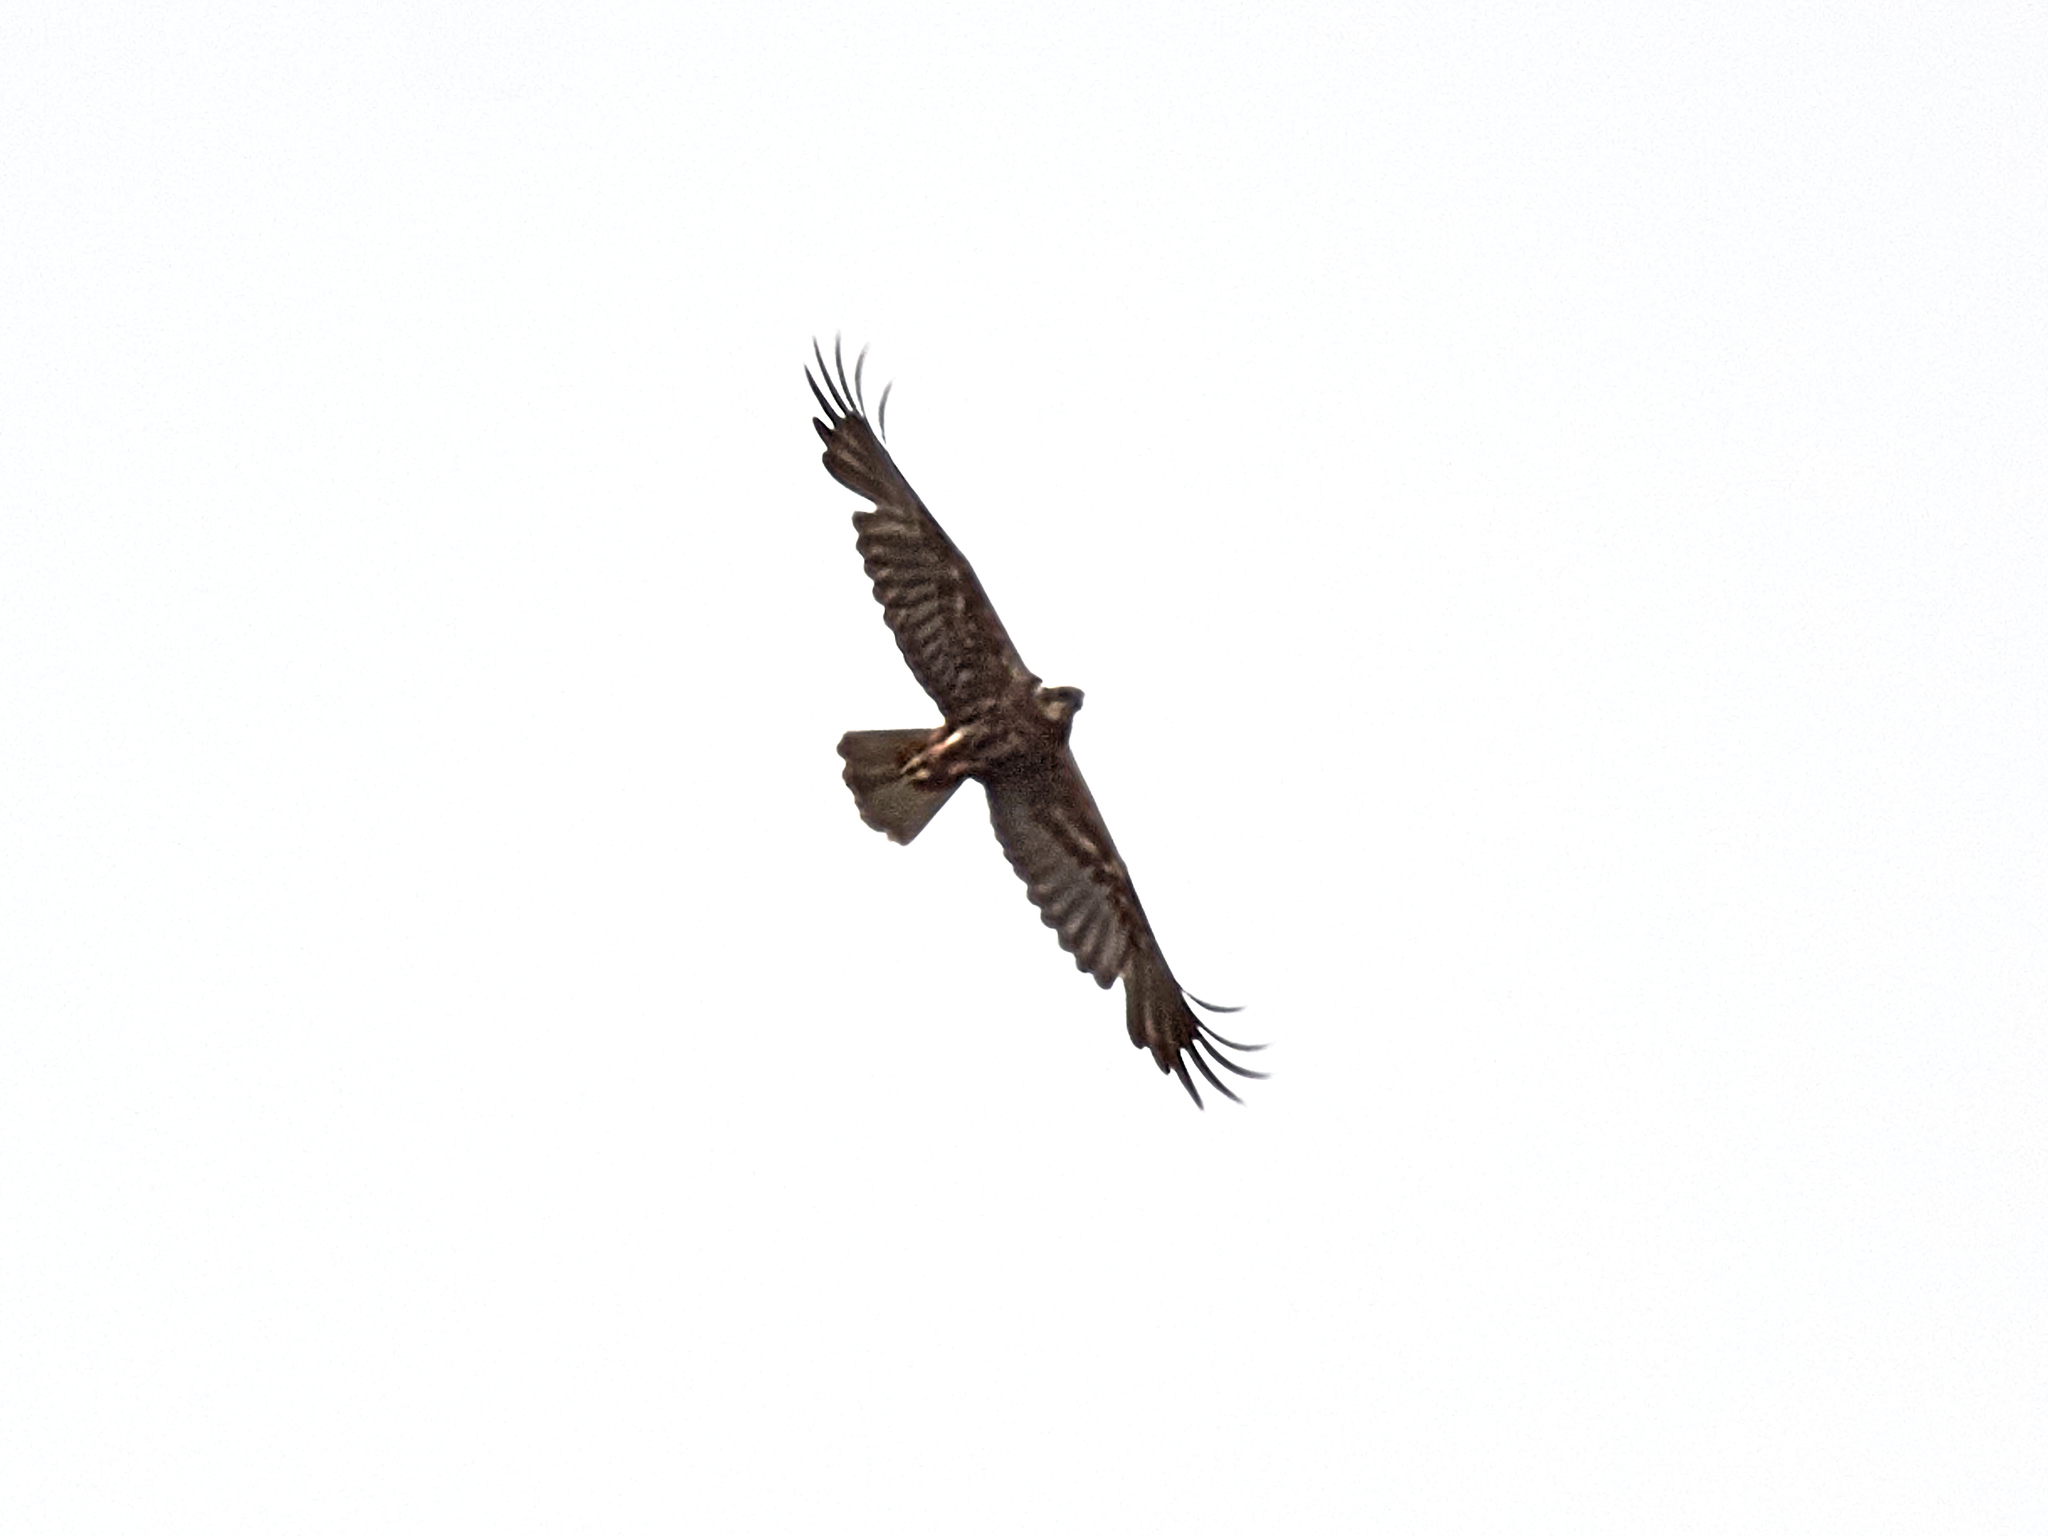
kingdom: Animalia
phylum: Chordata
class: Aves
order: Accipitriformes
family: Accipitridae
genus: Circus
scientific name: Circus aeruginosus
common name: Western marsh harrier
